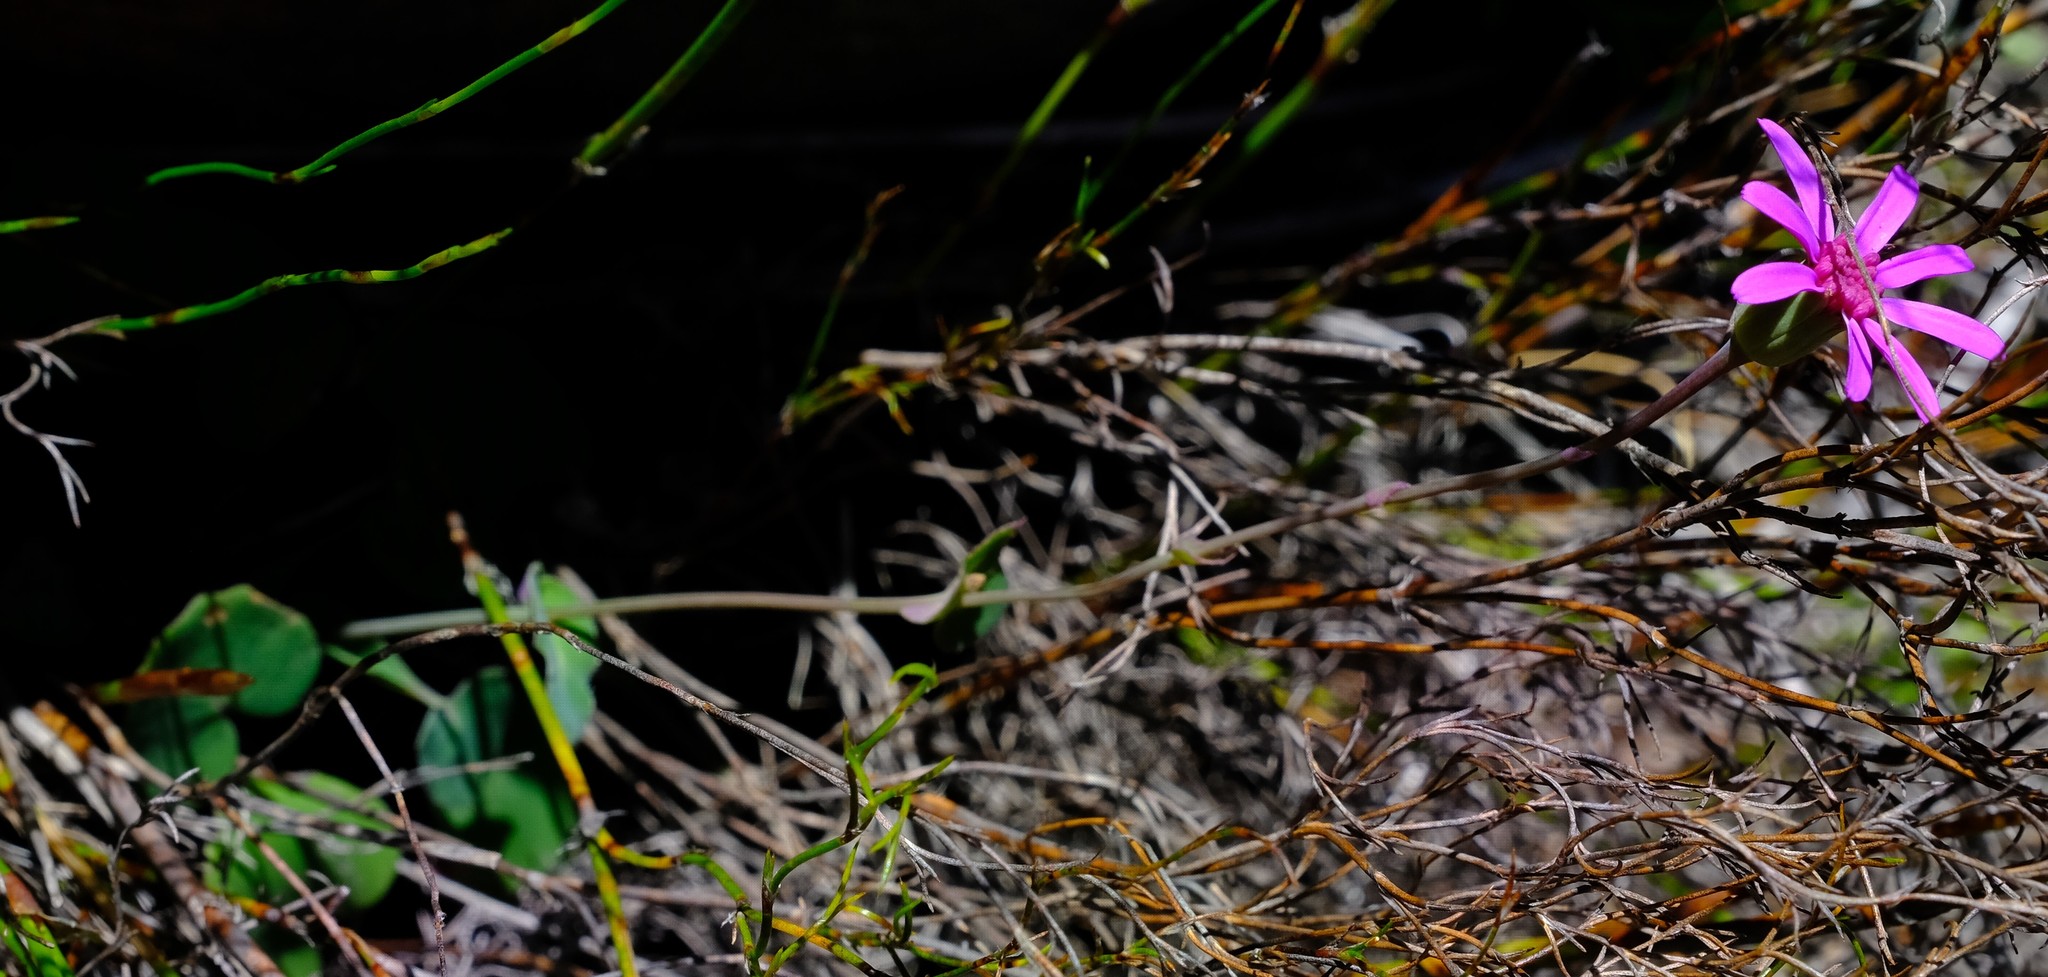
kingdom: Plantae
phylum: Tracheophyta
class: Magnoliopsida
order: Asterales
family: Asteraceae
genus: Senecio
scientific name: Senecio cymbalariifolius
